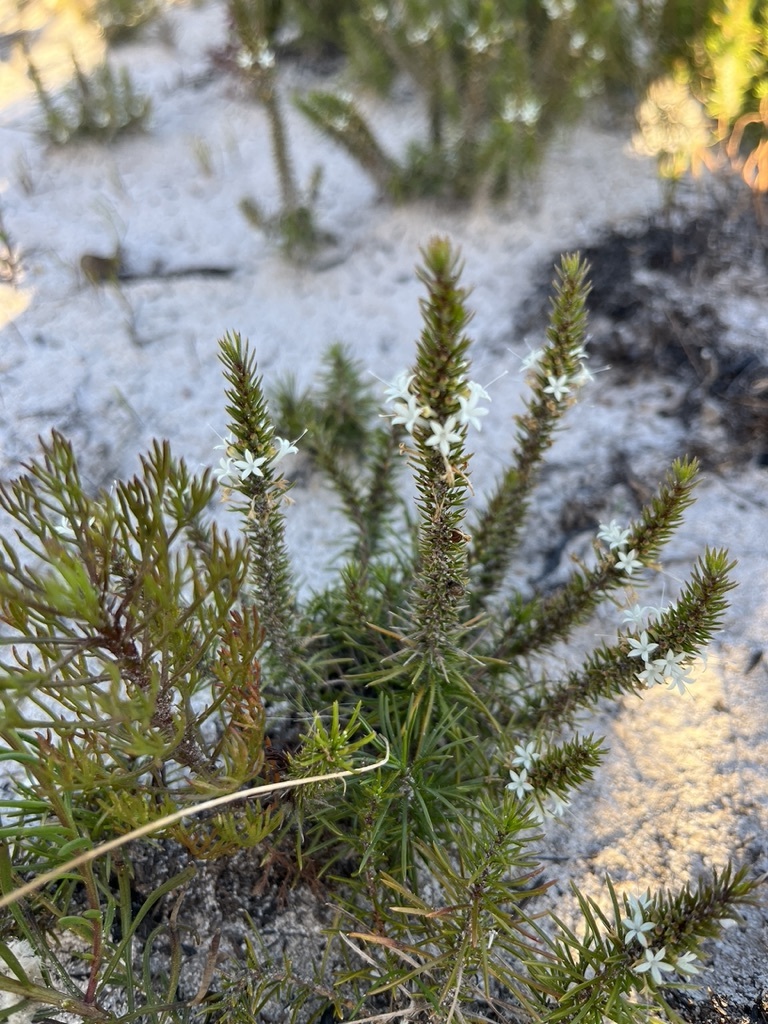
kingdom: Plantae
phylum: Tracheophyta
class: Magnoliopsida
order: Asterales
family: Campanulaceae
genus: Merciera
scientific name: Merciera leptoloba
